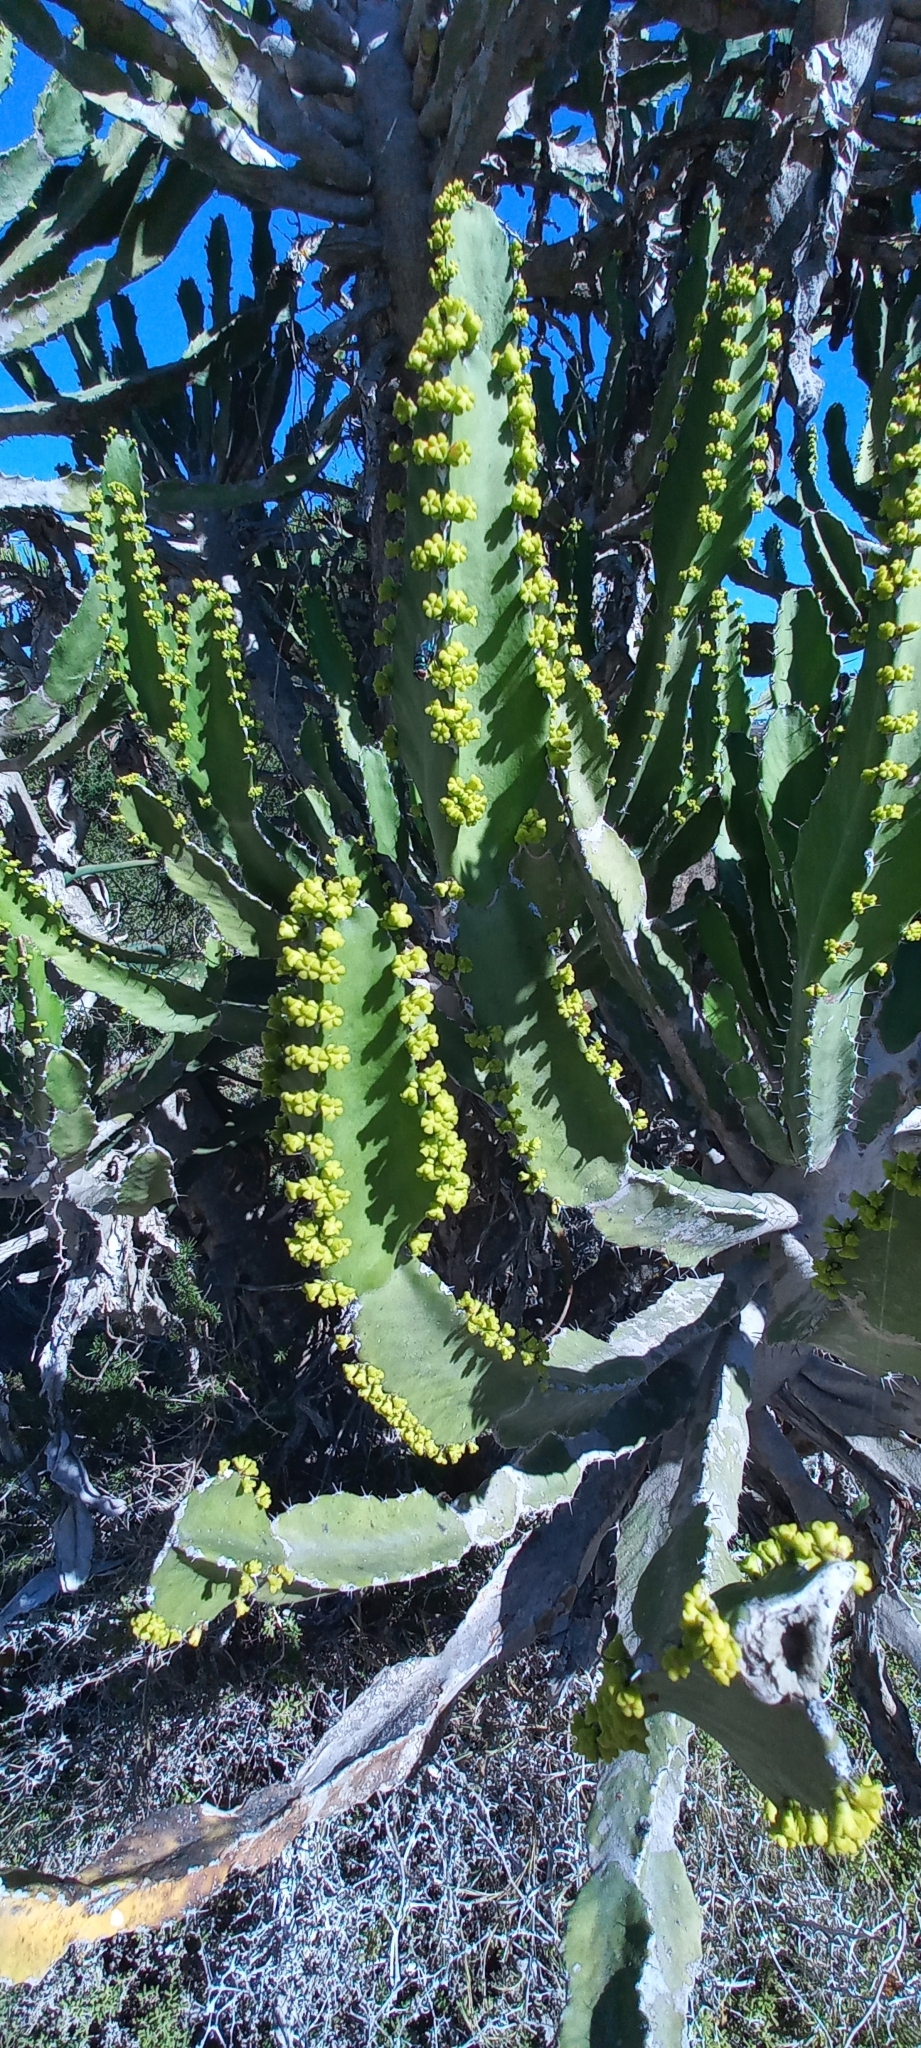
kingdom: Plantae
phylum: Tracheophyta
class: Magnoliopsida
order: Malpighiales
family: Euphorbiaceae
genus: Euphorbia
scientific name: Euphorbia triangularis
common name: Chandelier tree
